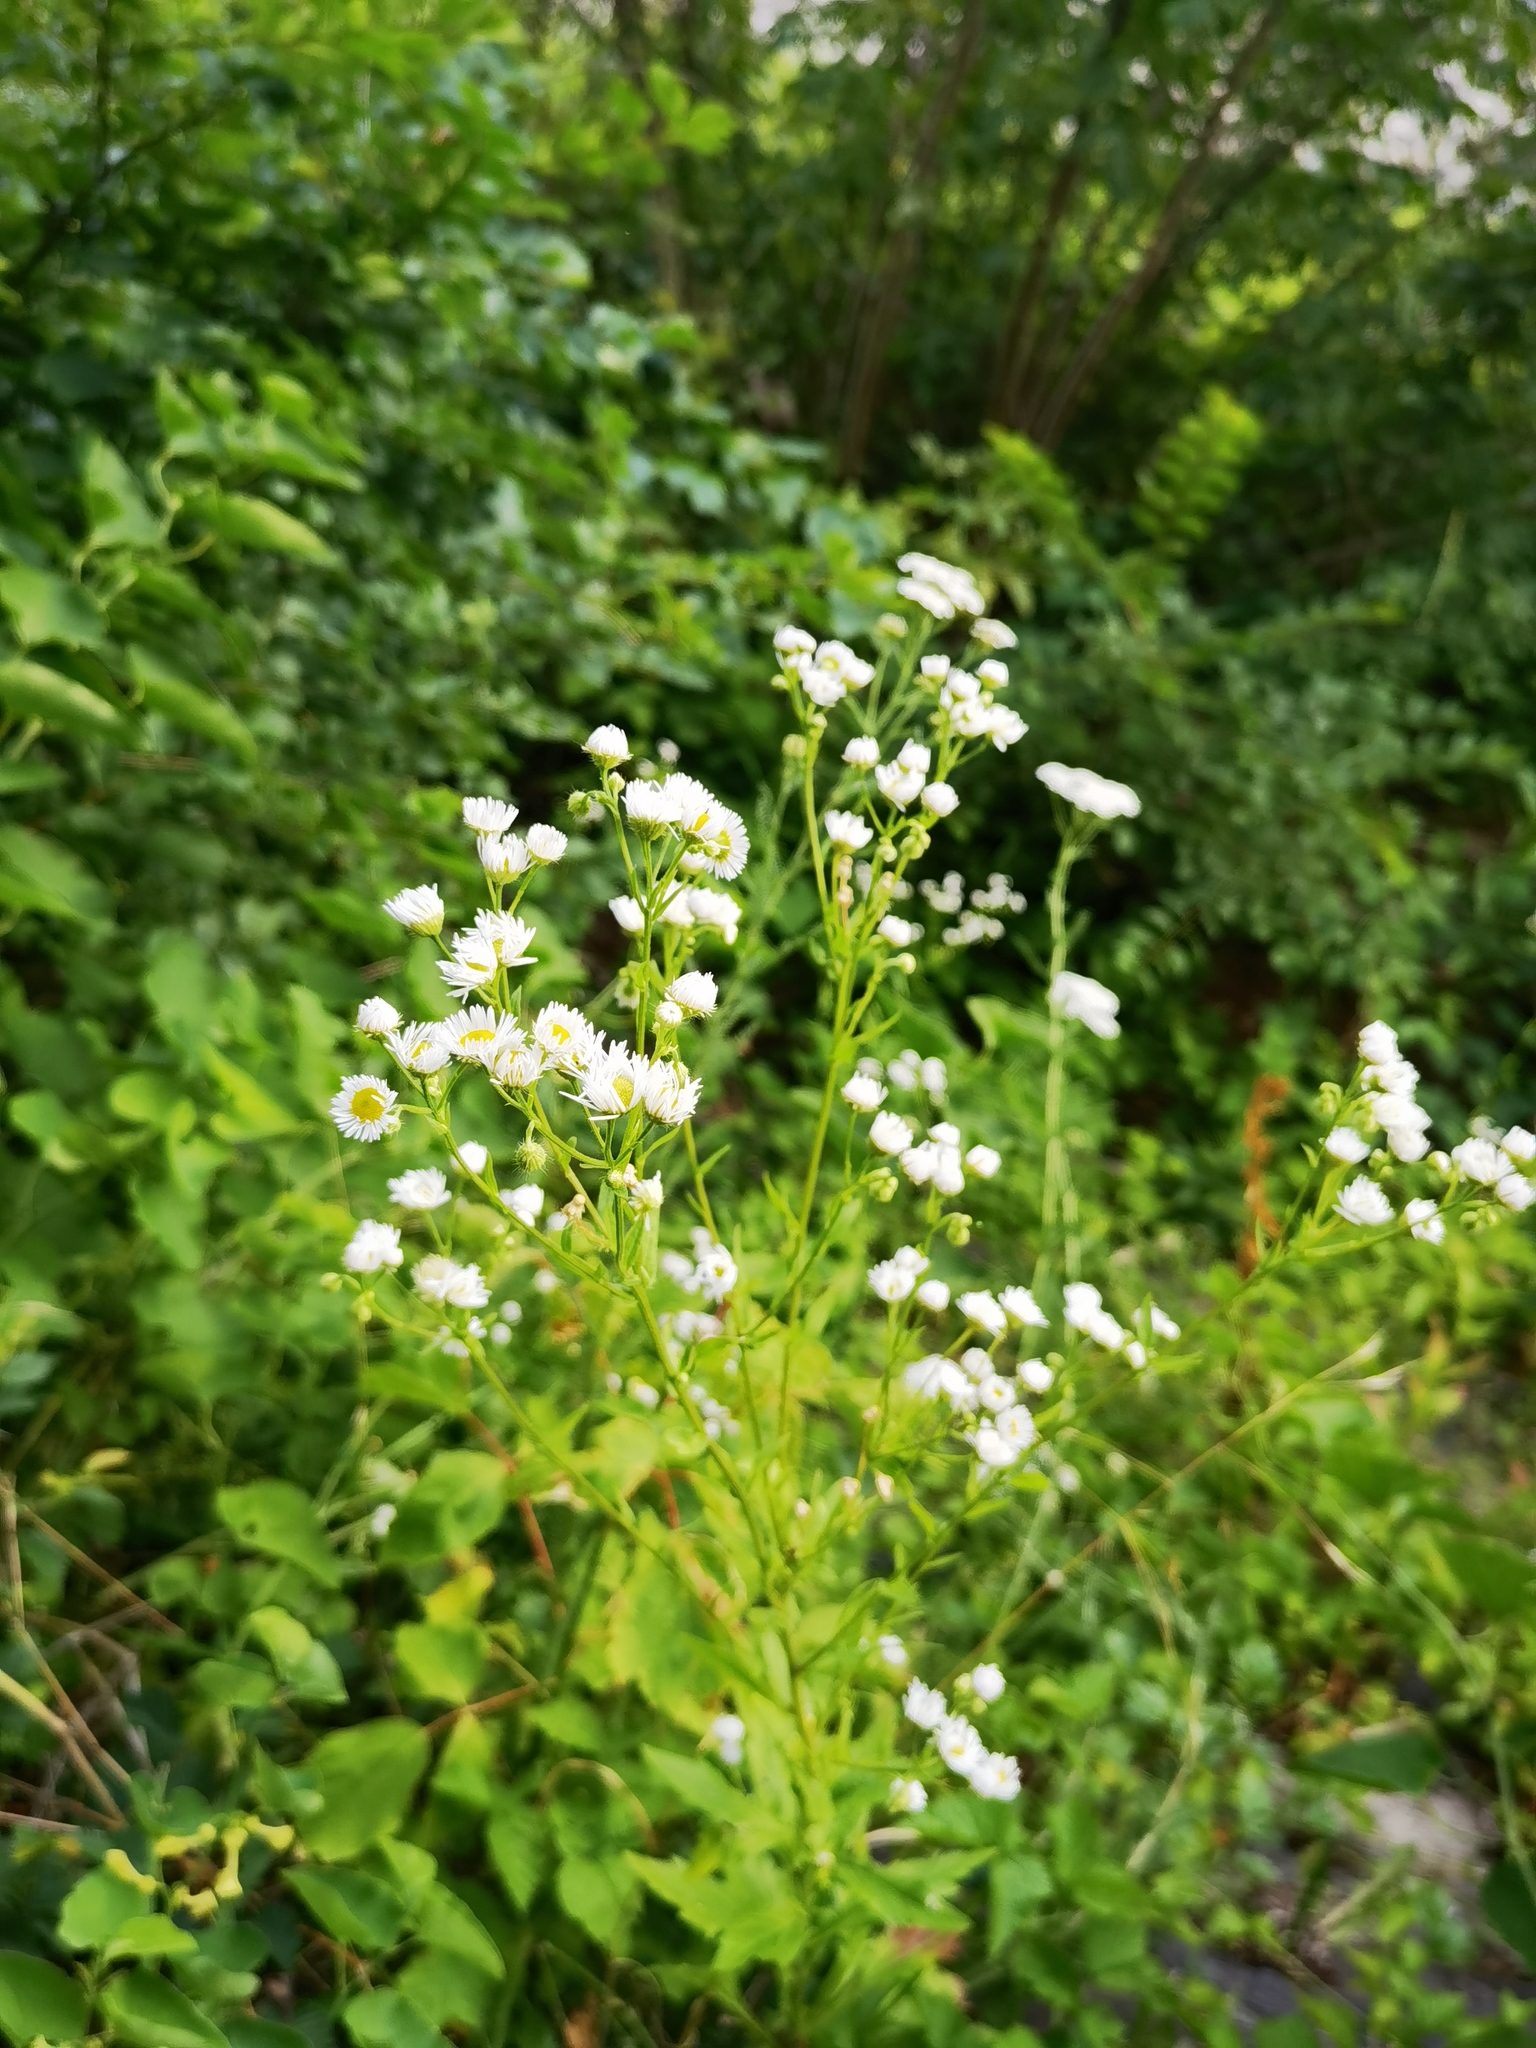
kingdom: Plantae
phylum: Tracheophyta
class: Magnoliopsida
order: Asterales
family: Asteraceae
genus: Erigeron
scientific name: Erigeron annuus
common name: Tall fleabane
